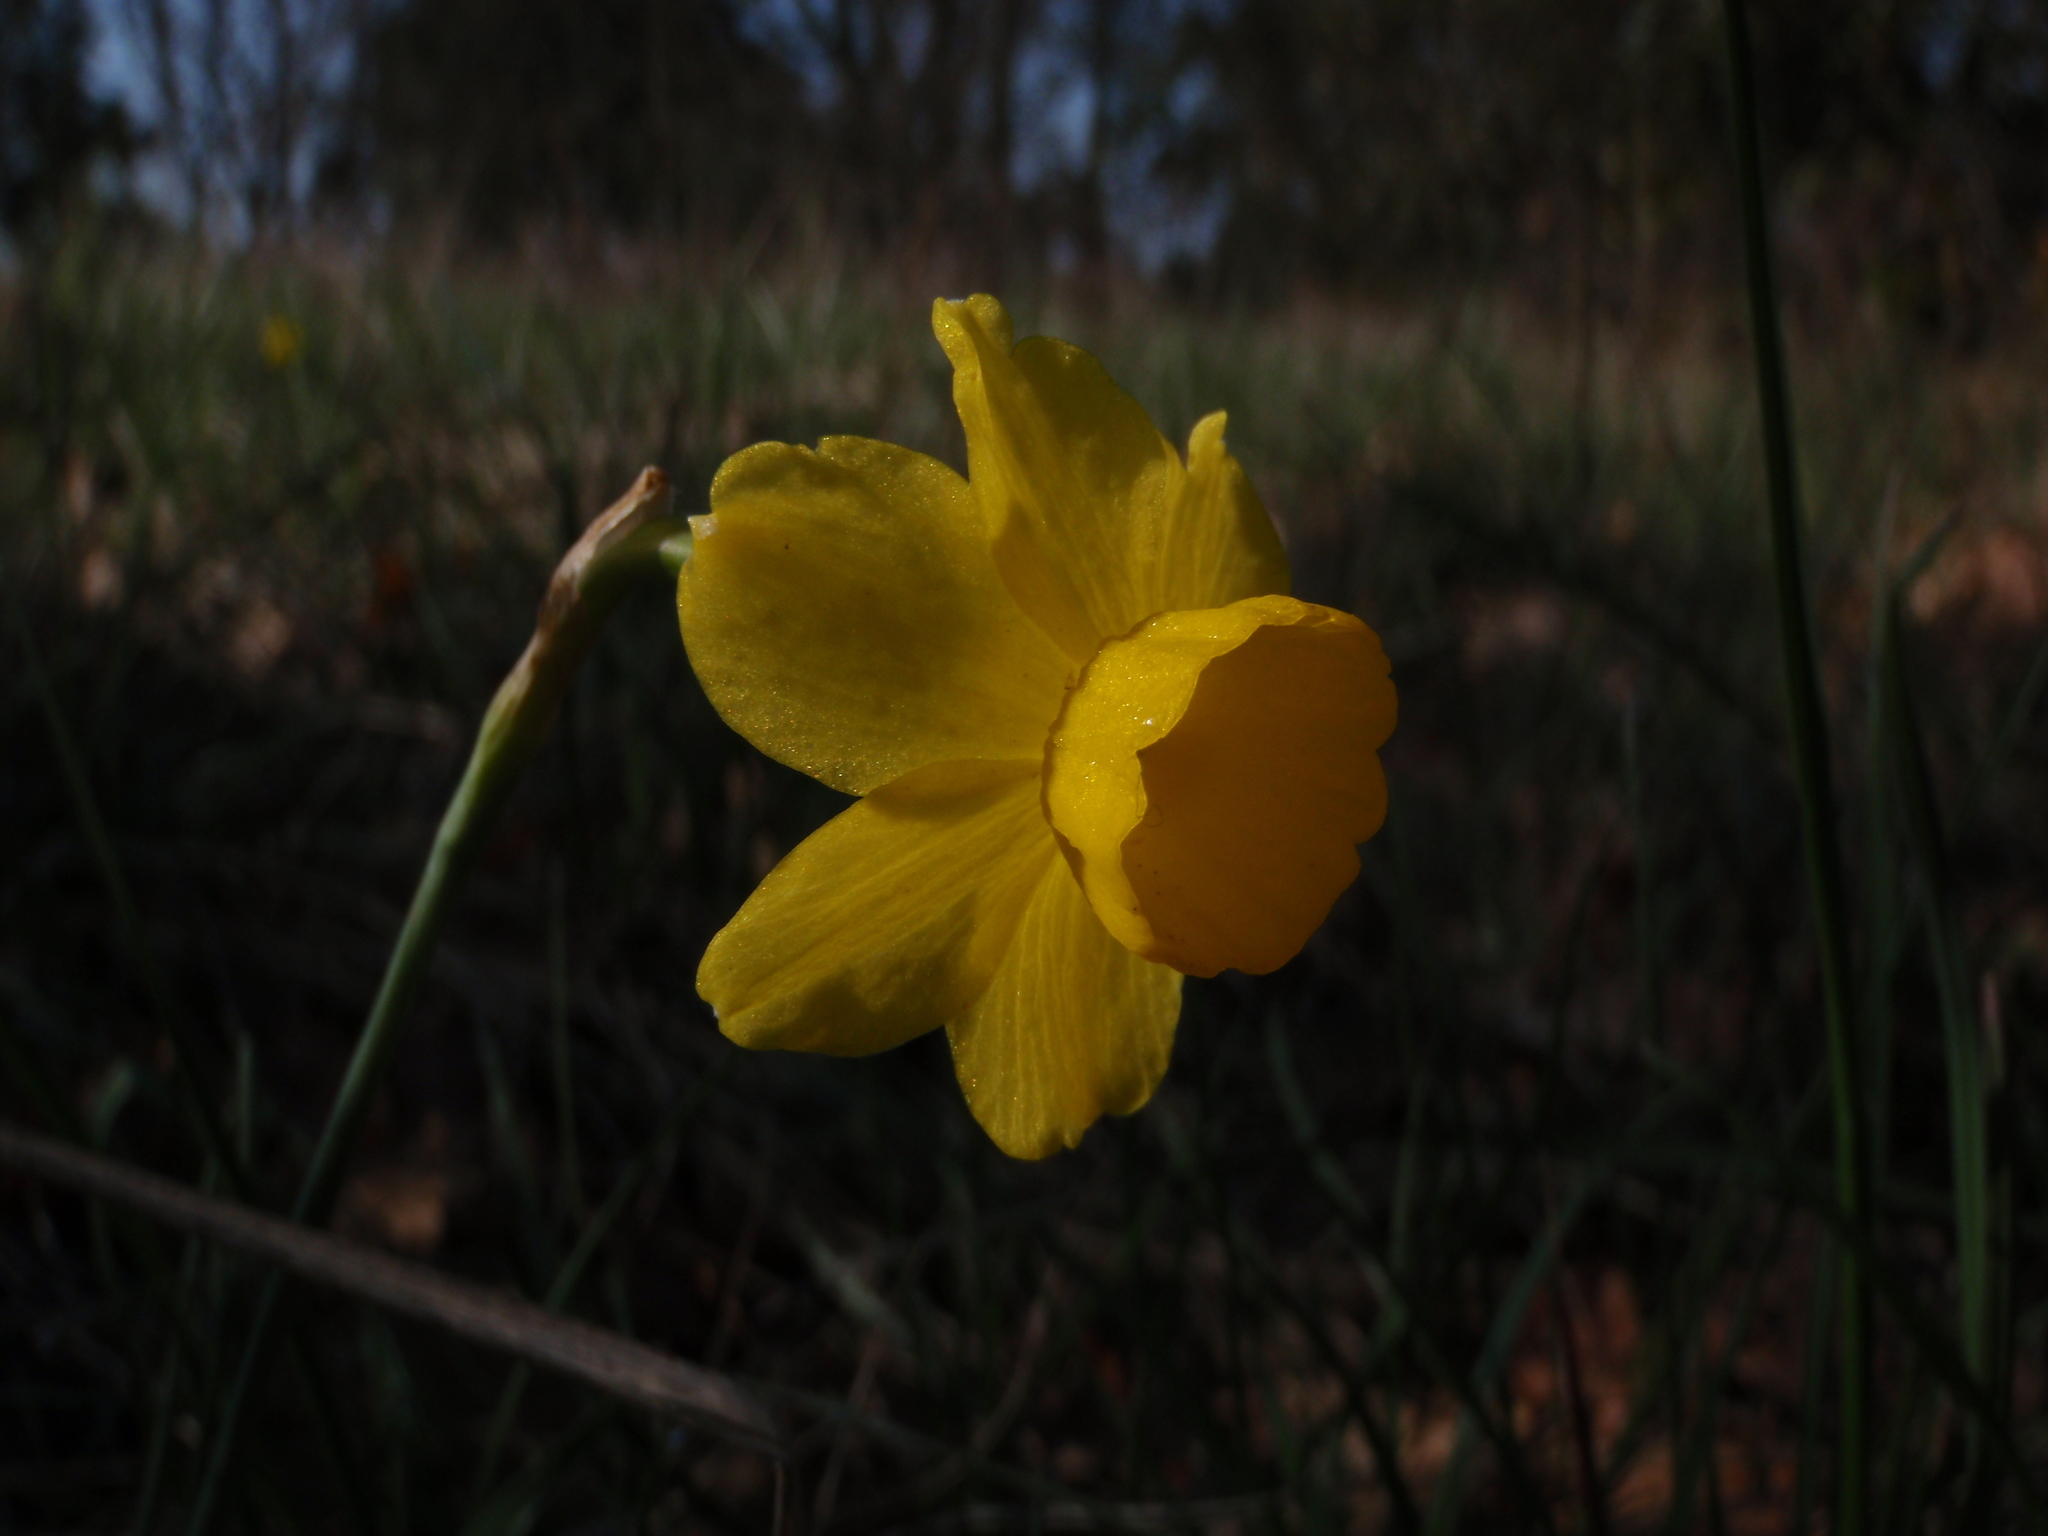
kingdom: Plantae
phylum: Tracheophyta
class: Liliopsida
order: Asparagales
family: Amaryllidaceae
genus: Narcissus
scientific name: Narcissus assoanus
